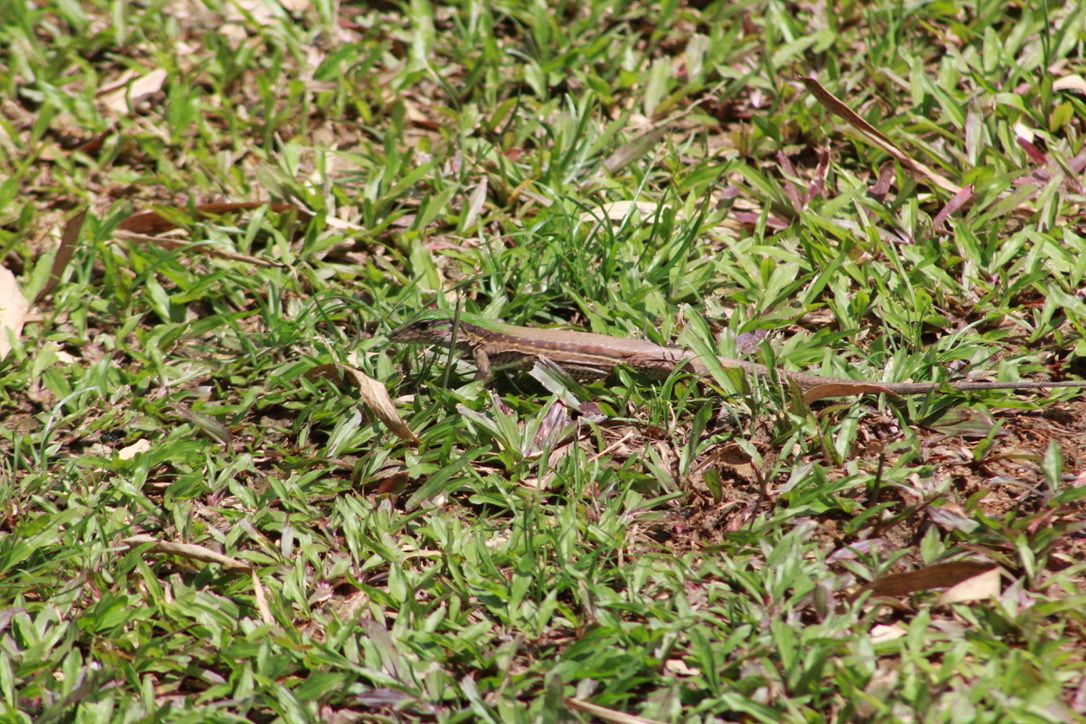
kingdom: Animalia
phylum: Chordata
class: Squamata
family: Teiidae
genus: Ameiva
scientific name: Ameiva atrigularis
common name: Venezuelan ameiva
